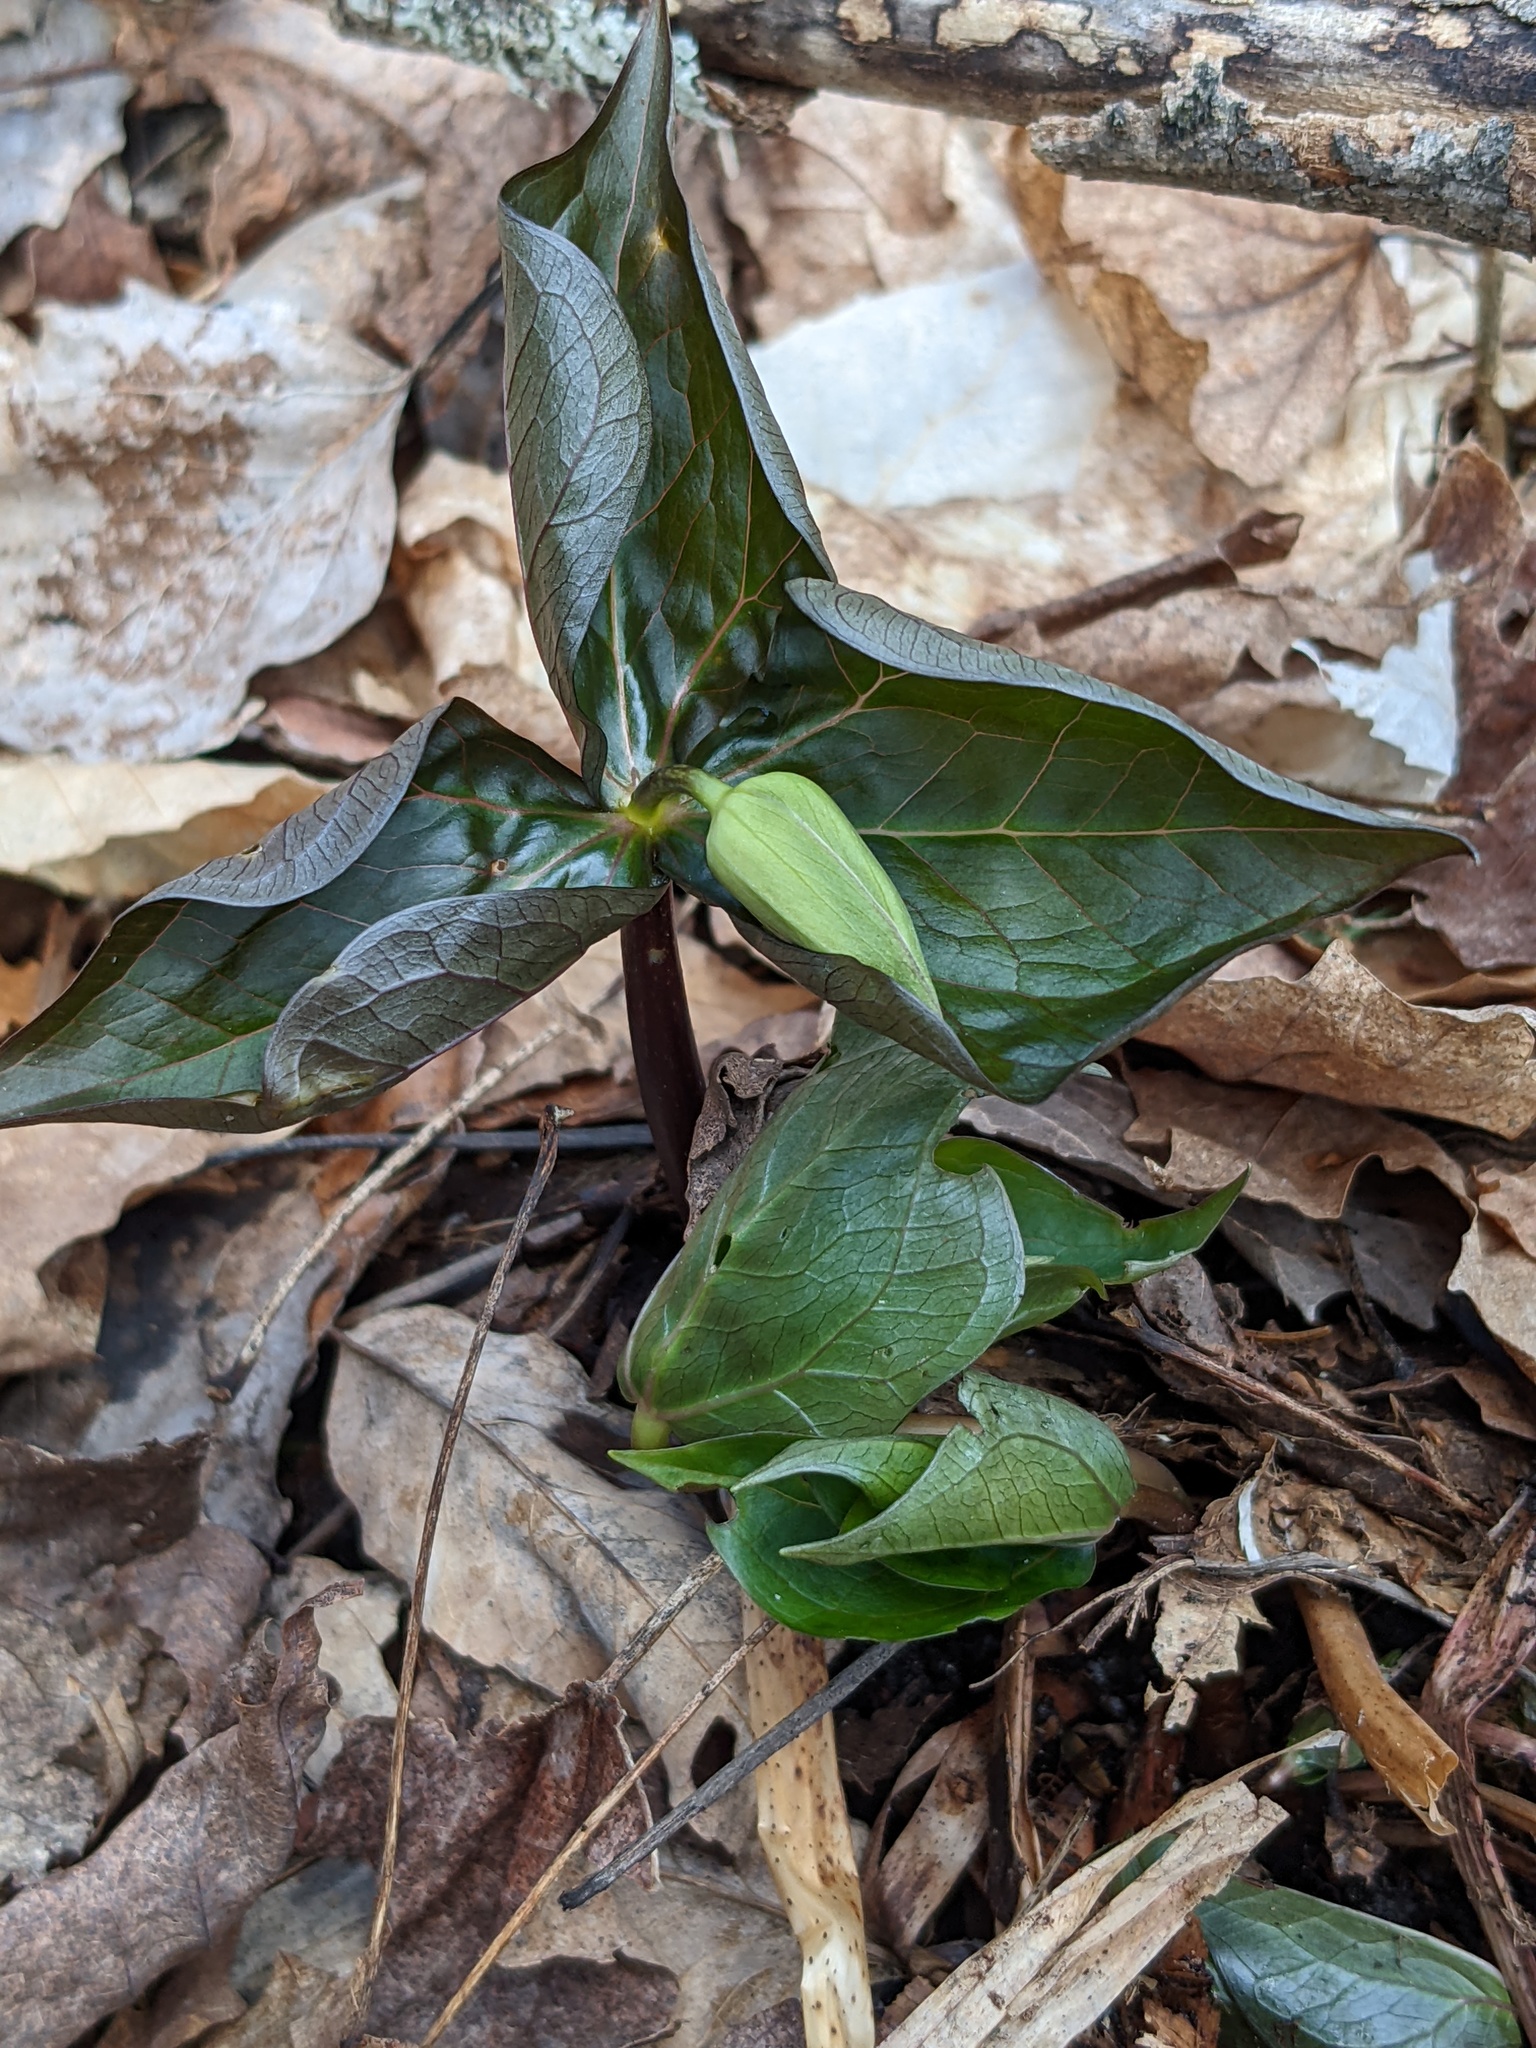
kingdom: Plantae
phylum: Tracheophyta
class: Liliopsida
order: Liliales
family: Melanthiaceae
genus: Trillium
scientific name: Trillium erectum
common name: Purple trillium
